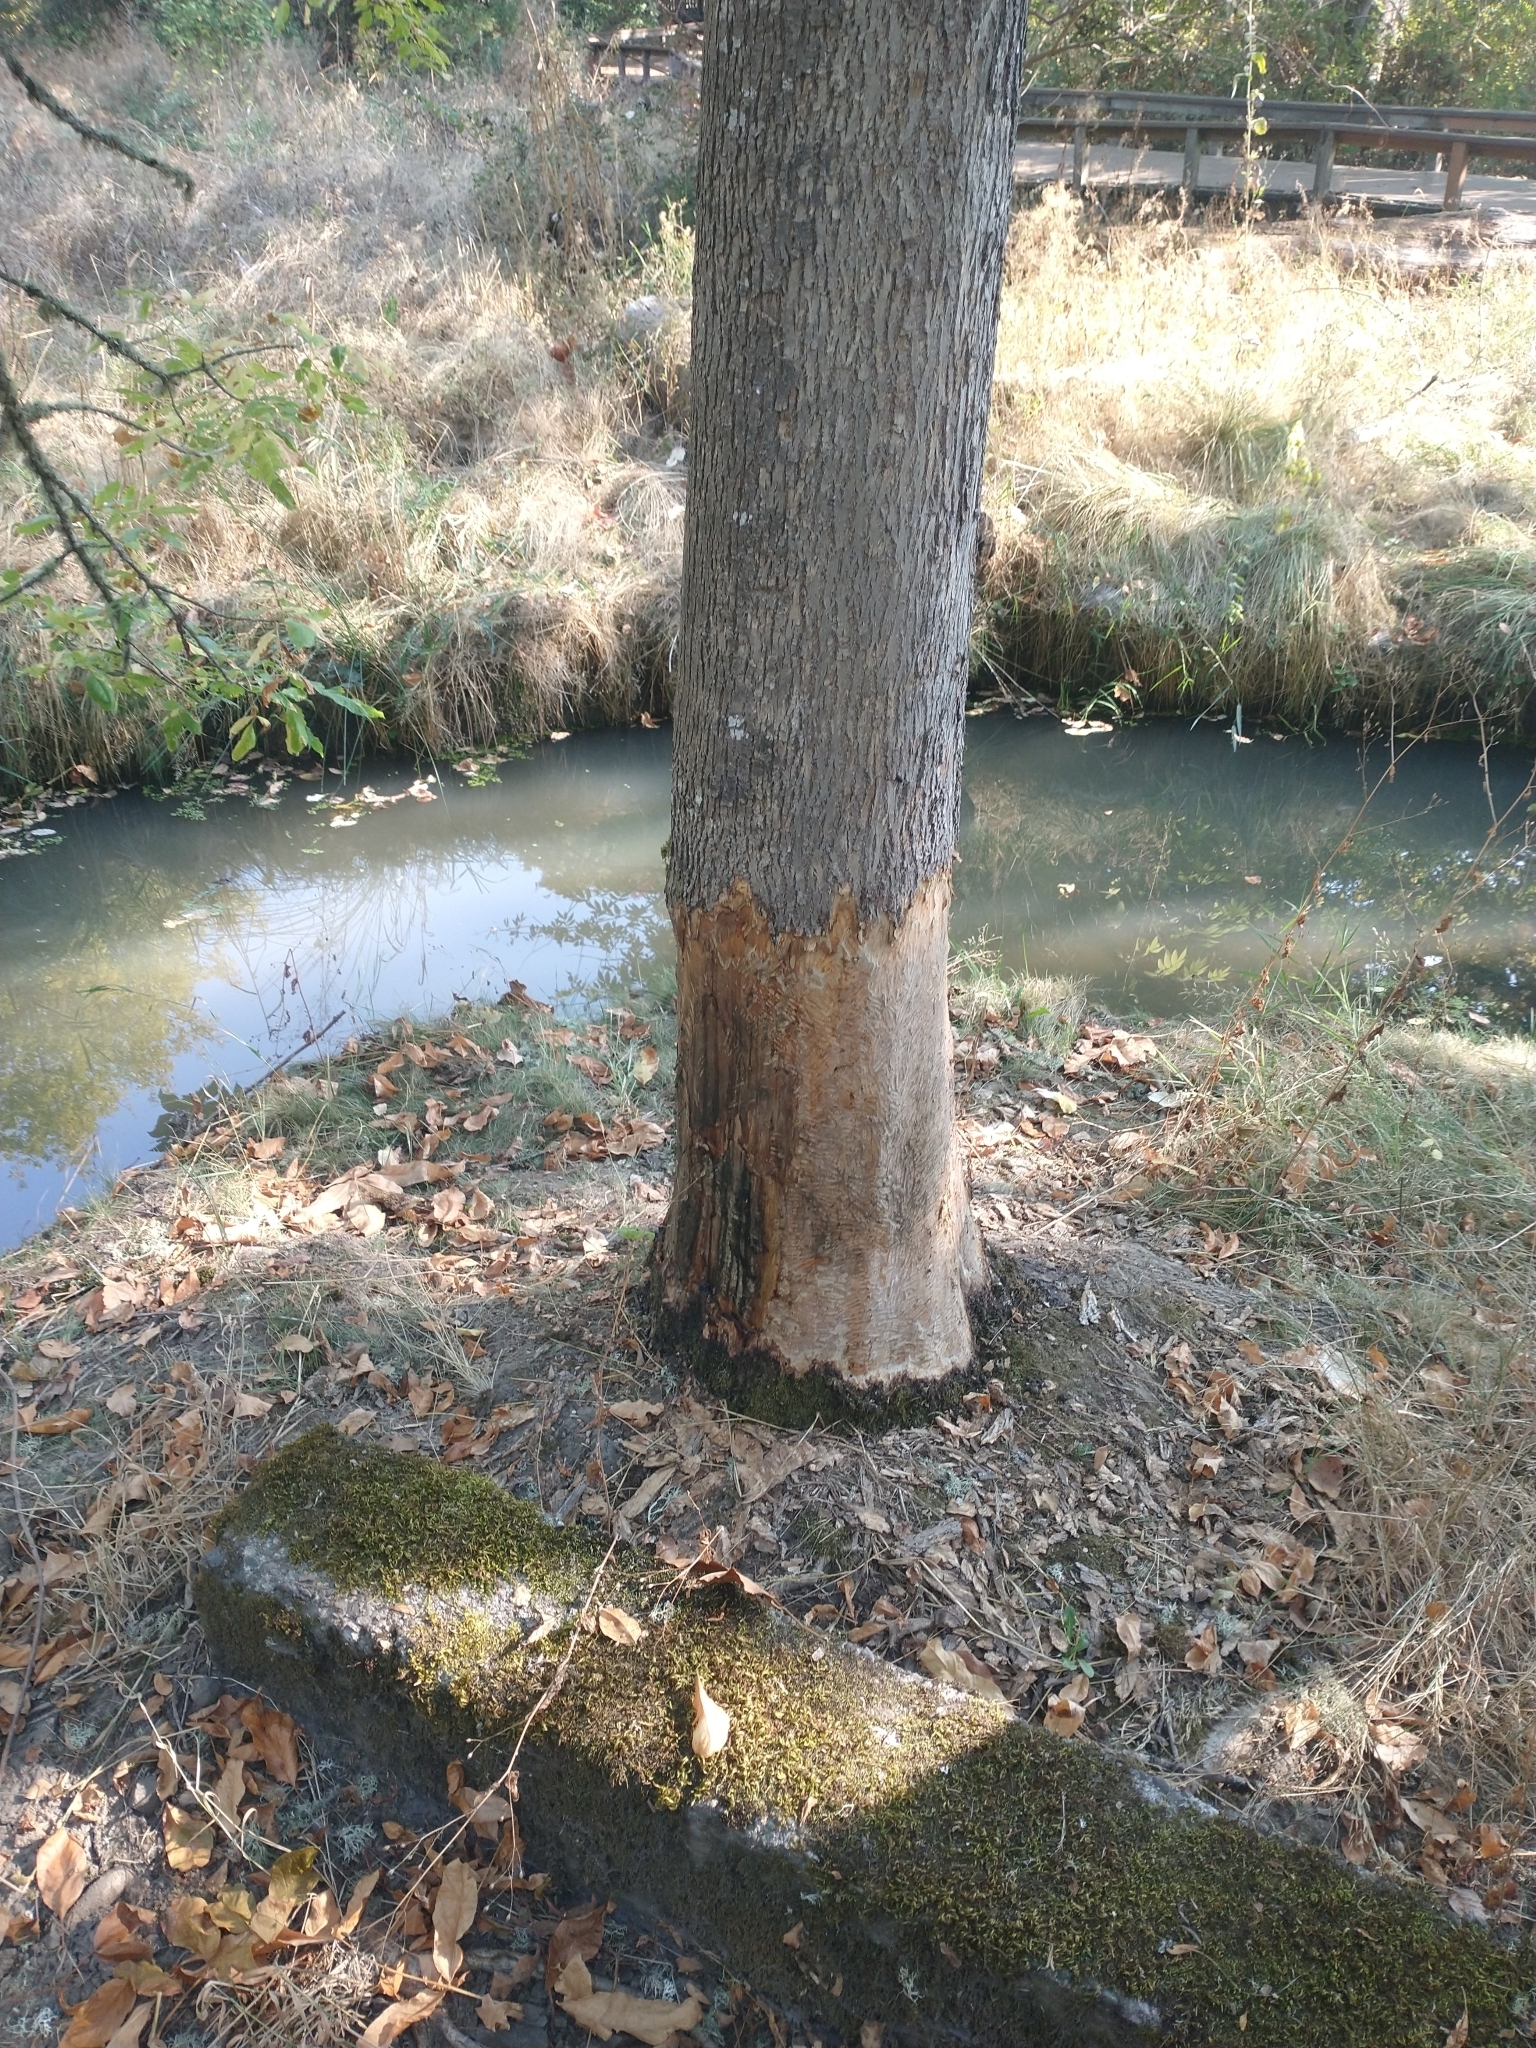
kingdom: Animalia
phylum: Chordata
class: Mammalia
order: Rodentia
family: Castoridae
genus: Castor
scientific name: Castor canadensis
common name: American beaver
